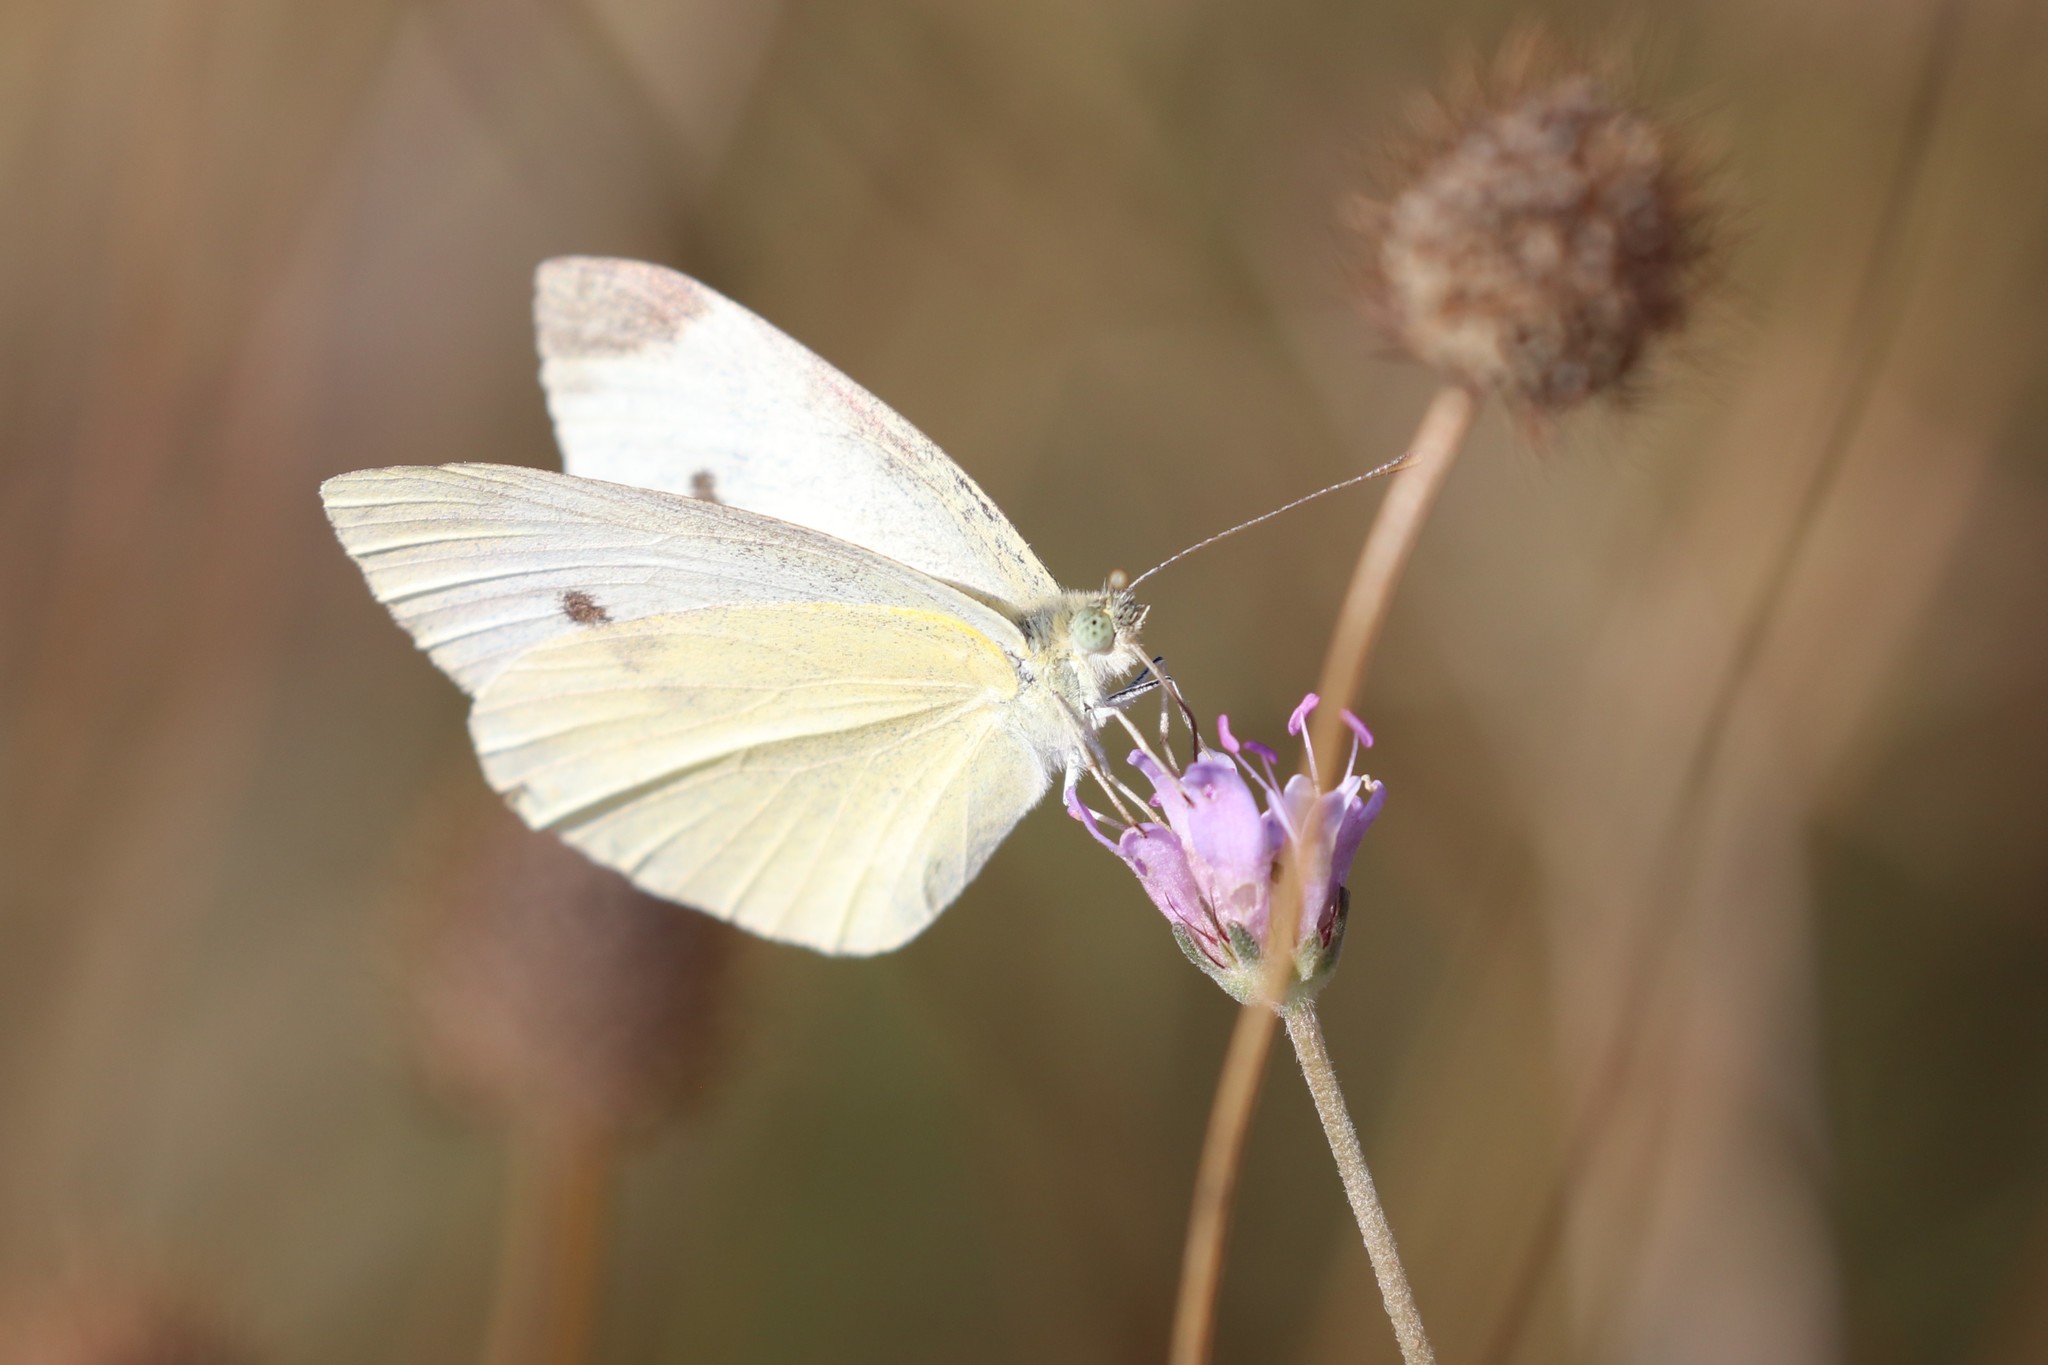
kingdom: Animalia
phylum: Arthropoda
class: Insecta
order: Lepidoptera
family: Pieridae
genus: Pieris
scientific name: Pieris rapae
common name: Small white
